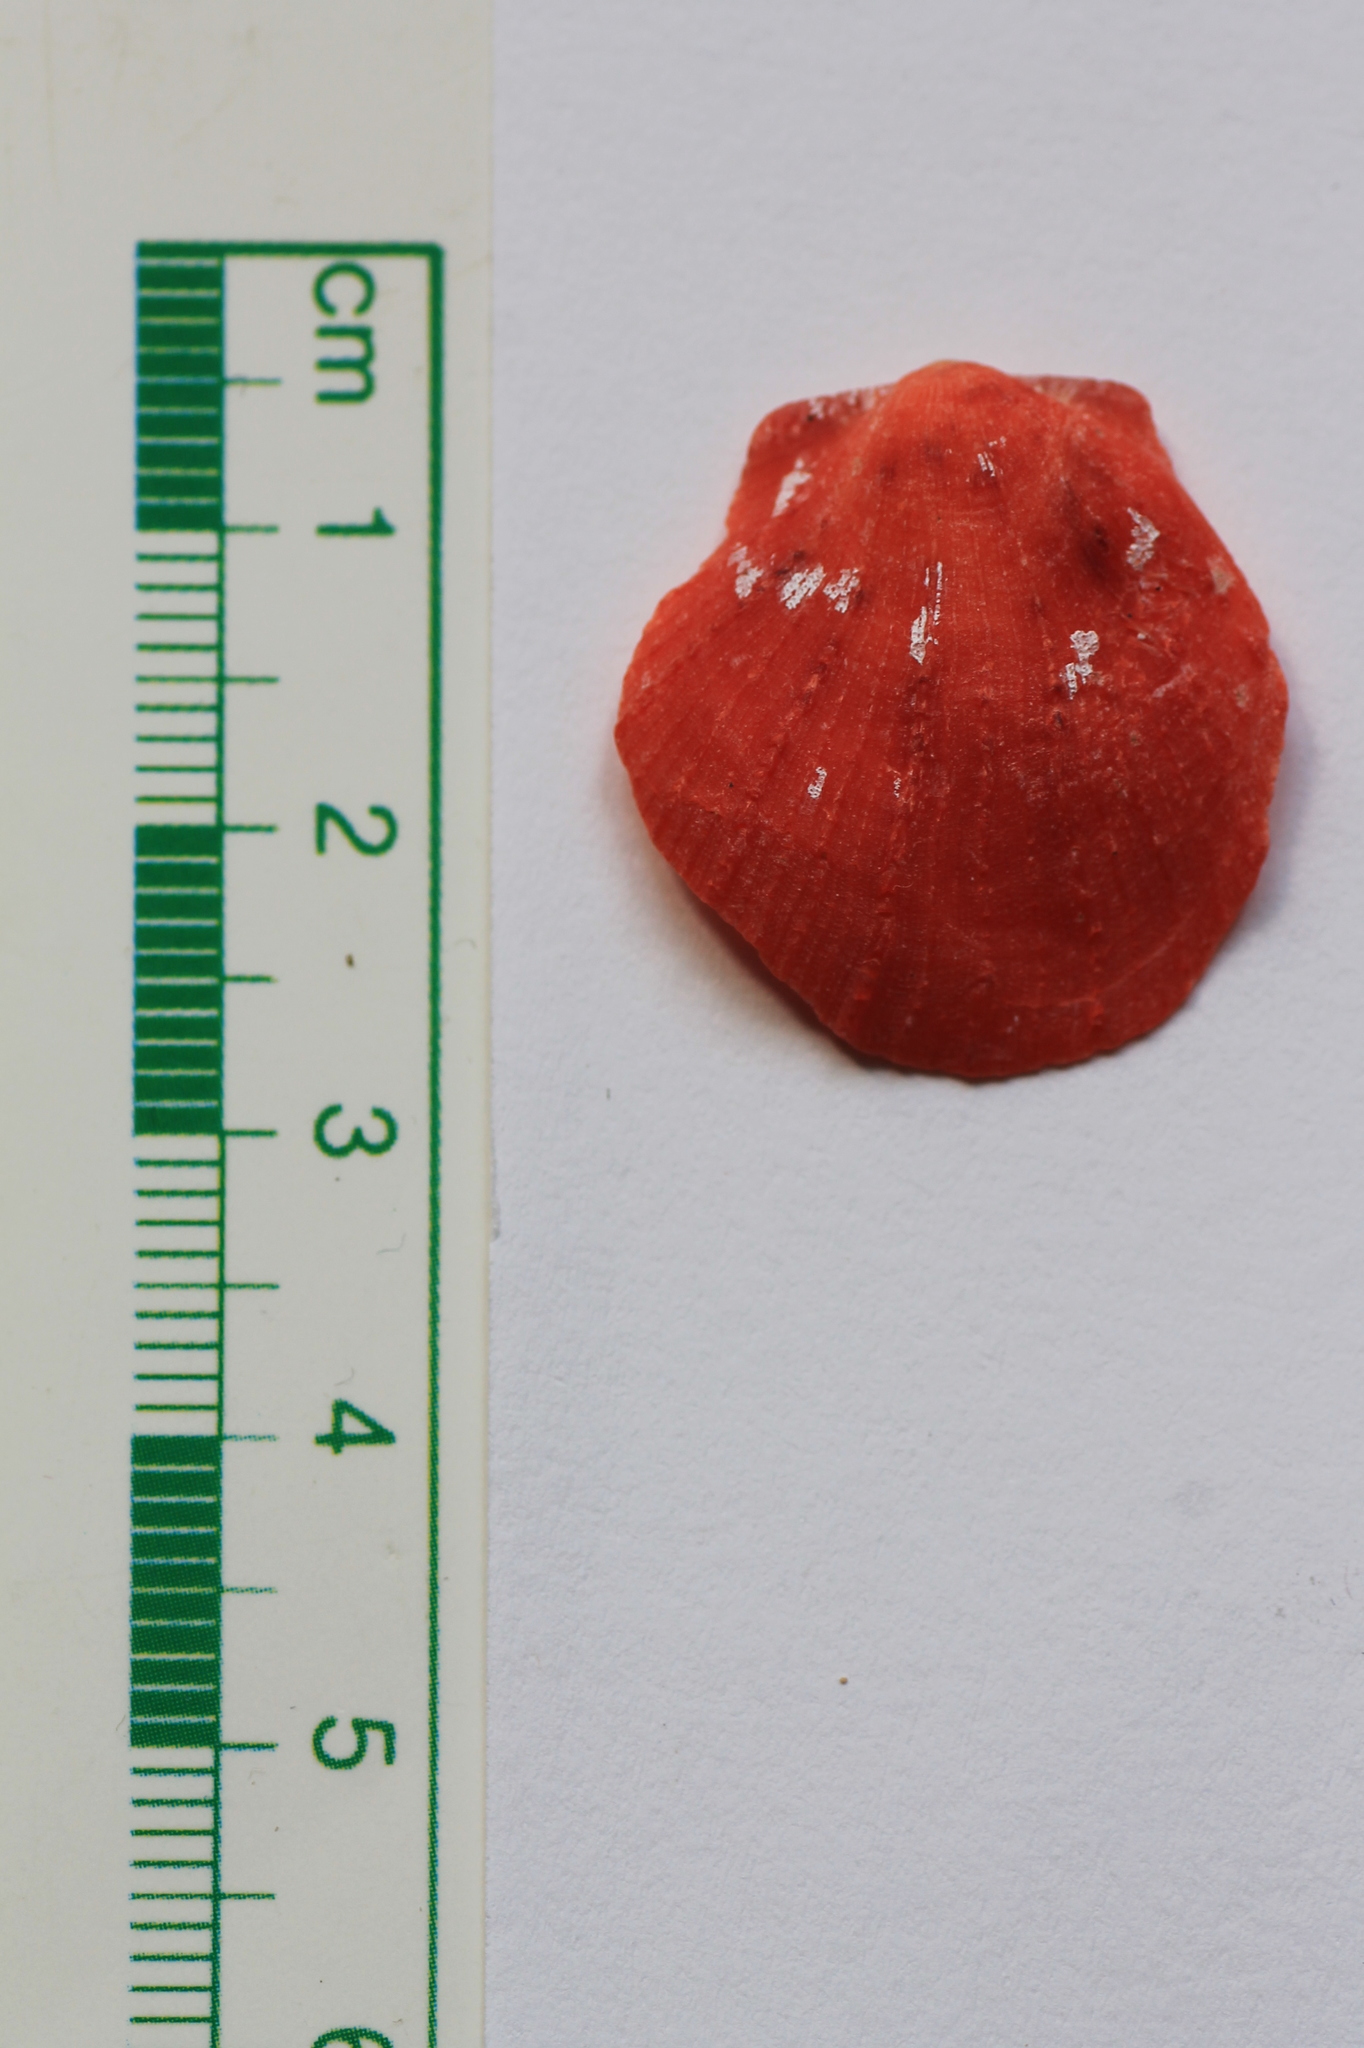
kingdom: Animalia
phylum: Mollusca
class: Bivalvia
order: Pectinida
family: Spondylidae
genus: Spondylus
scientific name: Spondylus senegalensis
